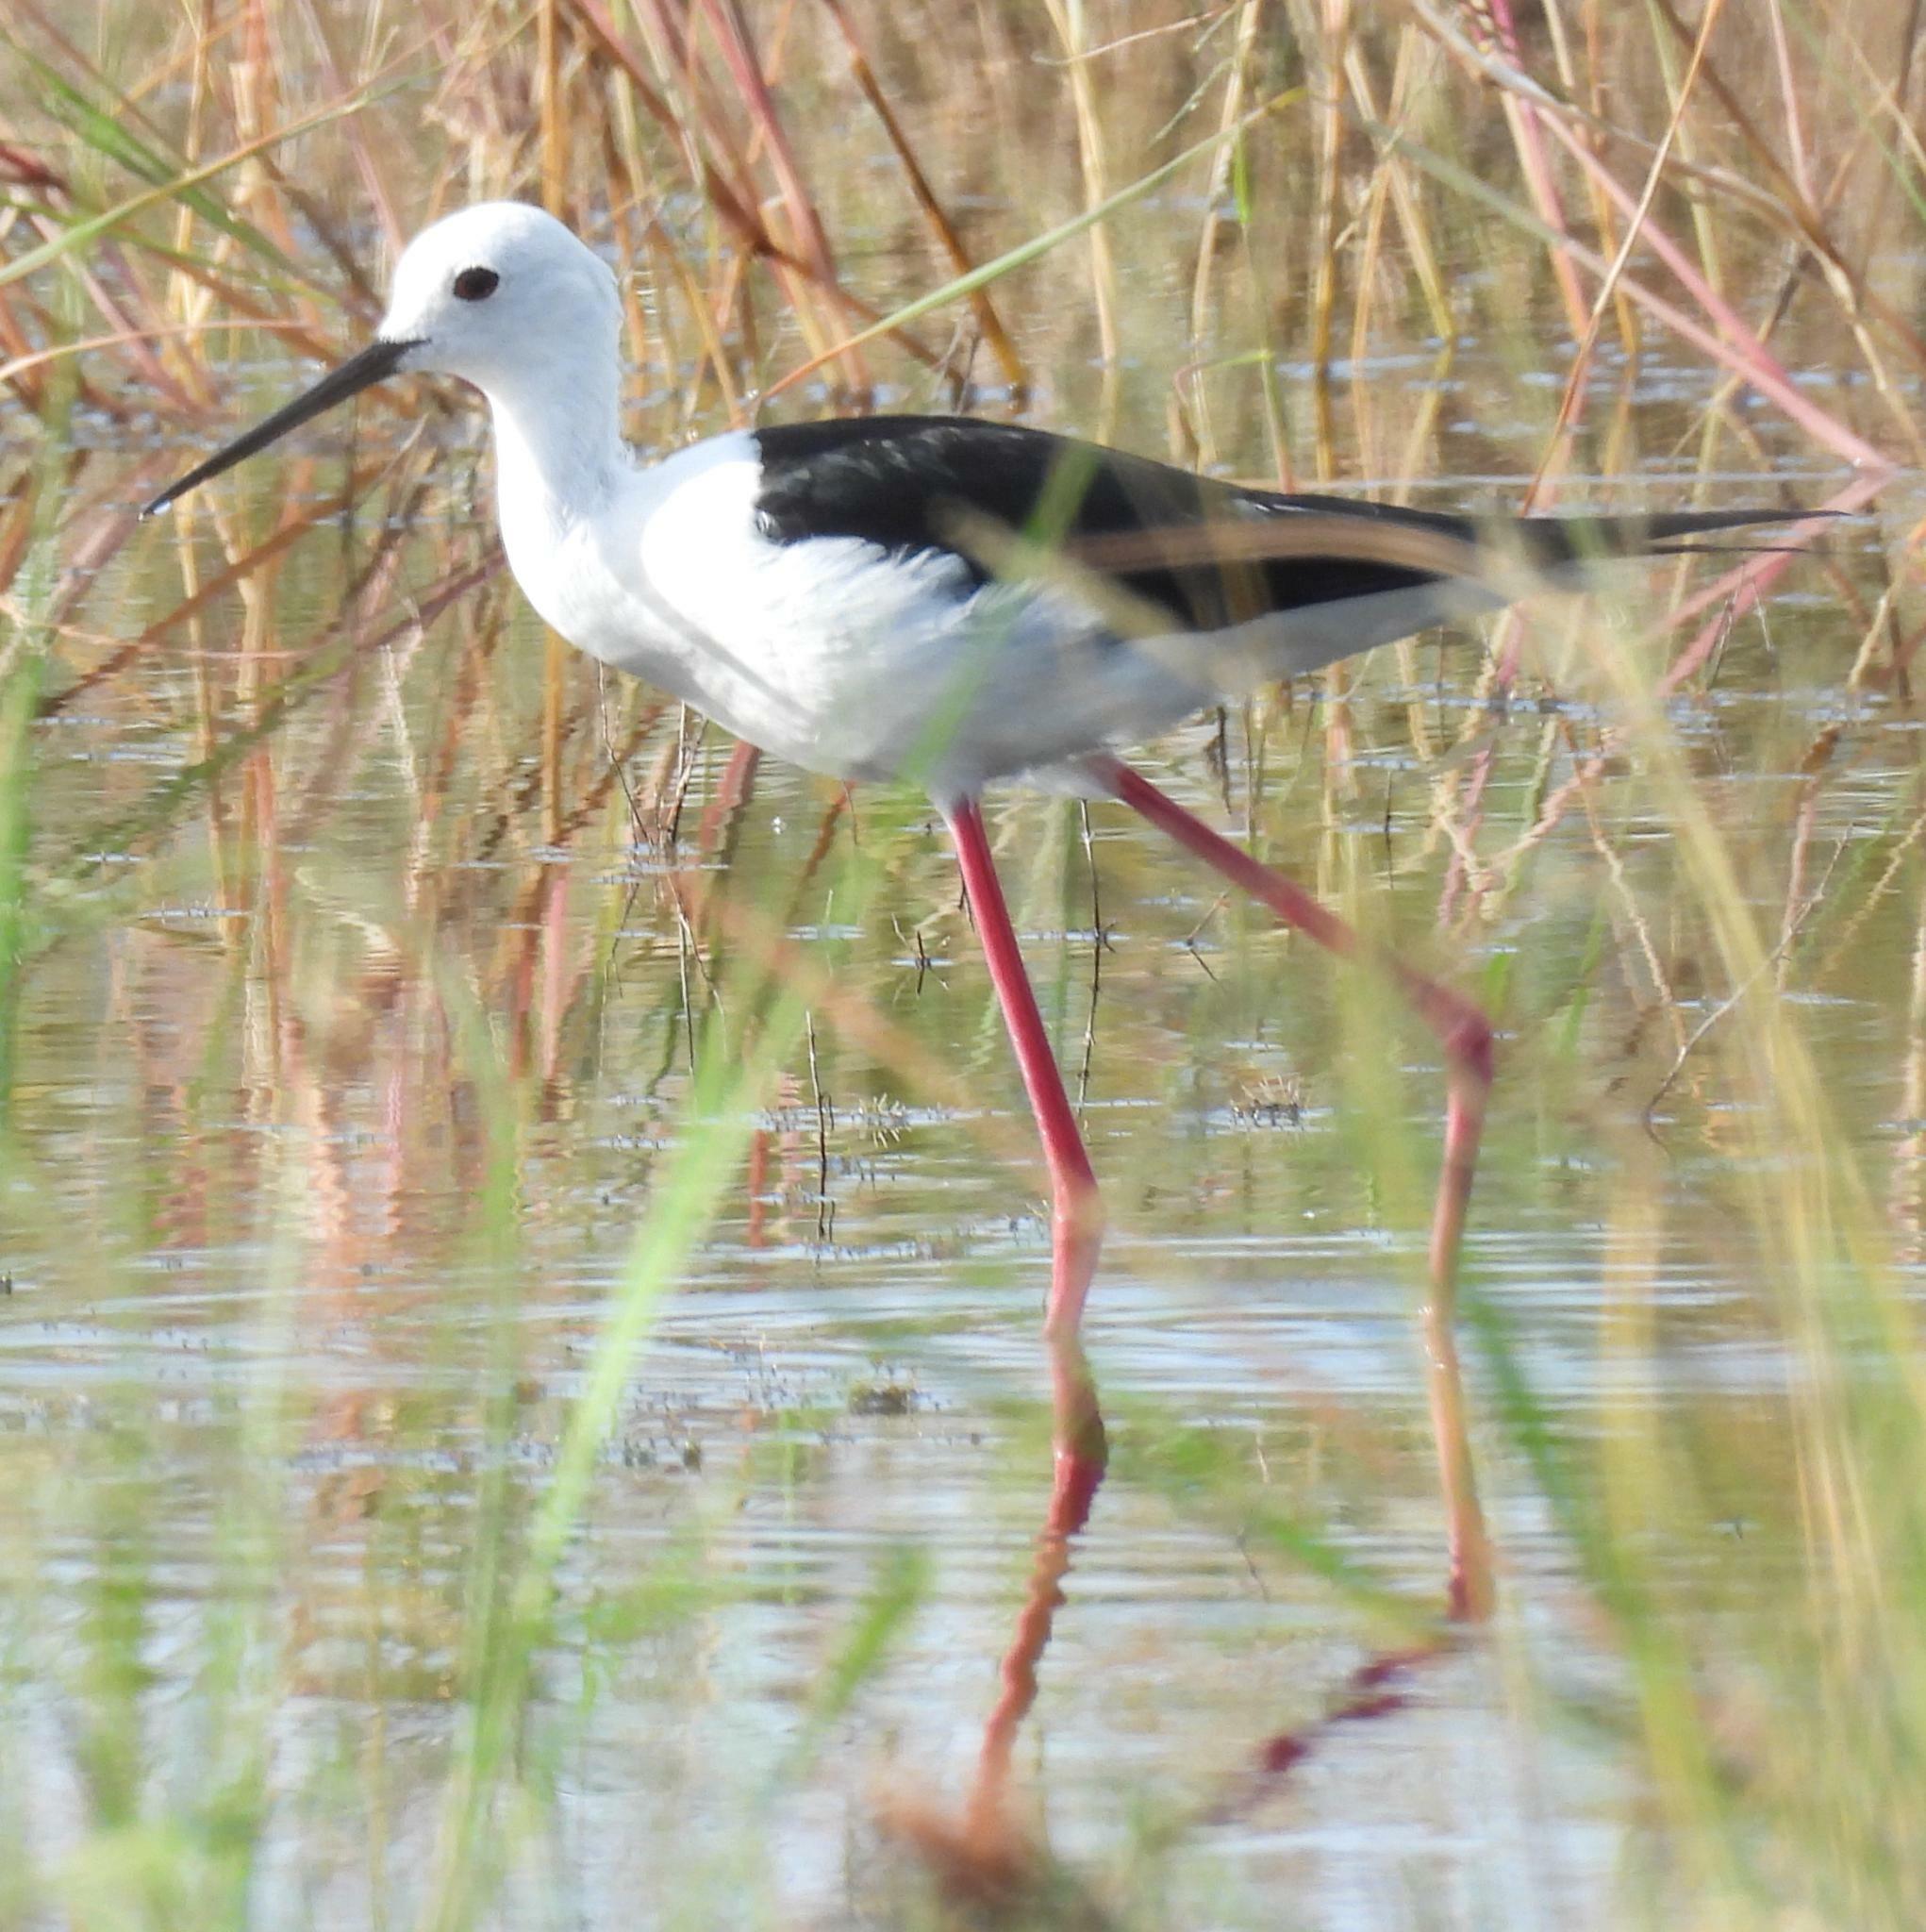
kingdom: Animalia
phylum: Chordata
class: Aves
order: Charadriiformes
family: Recurvirostridae
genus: Himantopus
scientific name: Himantopus himantopus
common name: Black-winged stilt
